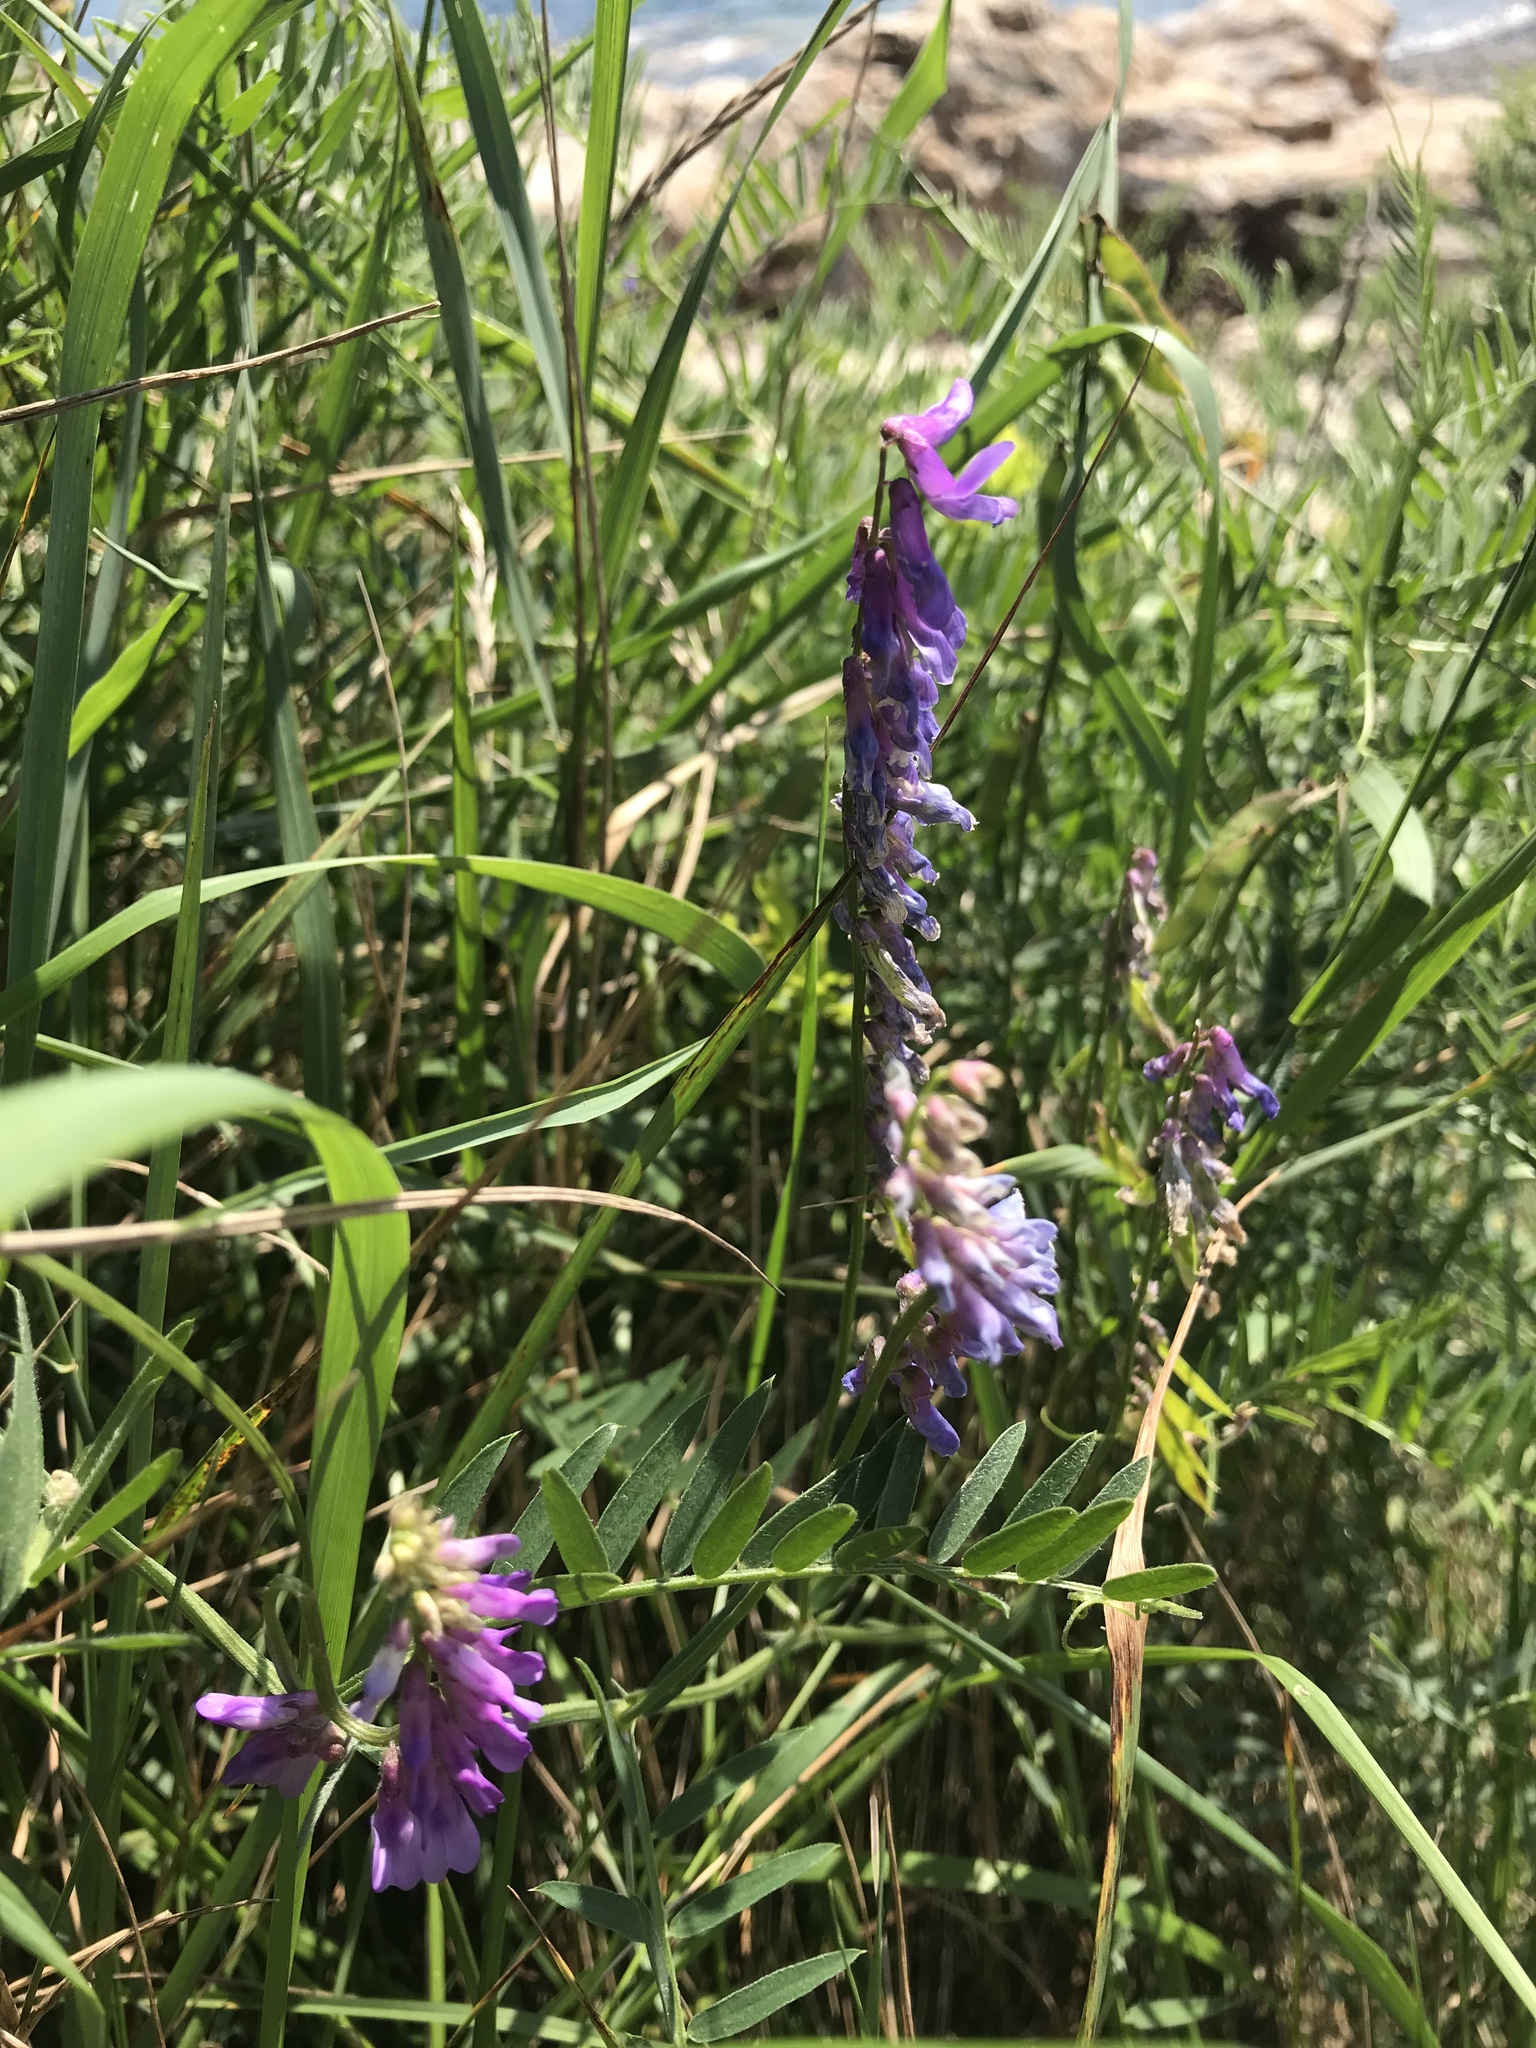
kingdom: Plantae
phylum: Tracheophyta
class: Magnoliopsida
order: Fabales
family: Fabaceae
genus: Vicia
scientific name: Vicia cracca
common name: Bird vetch
